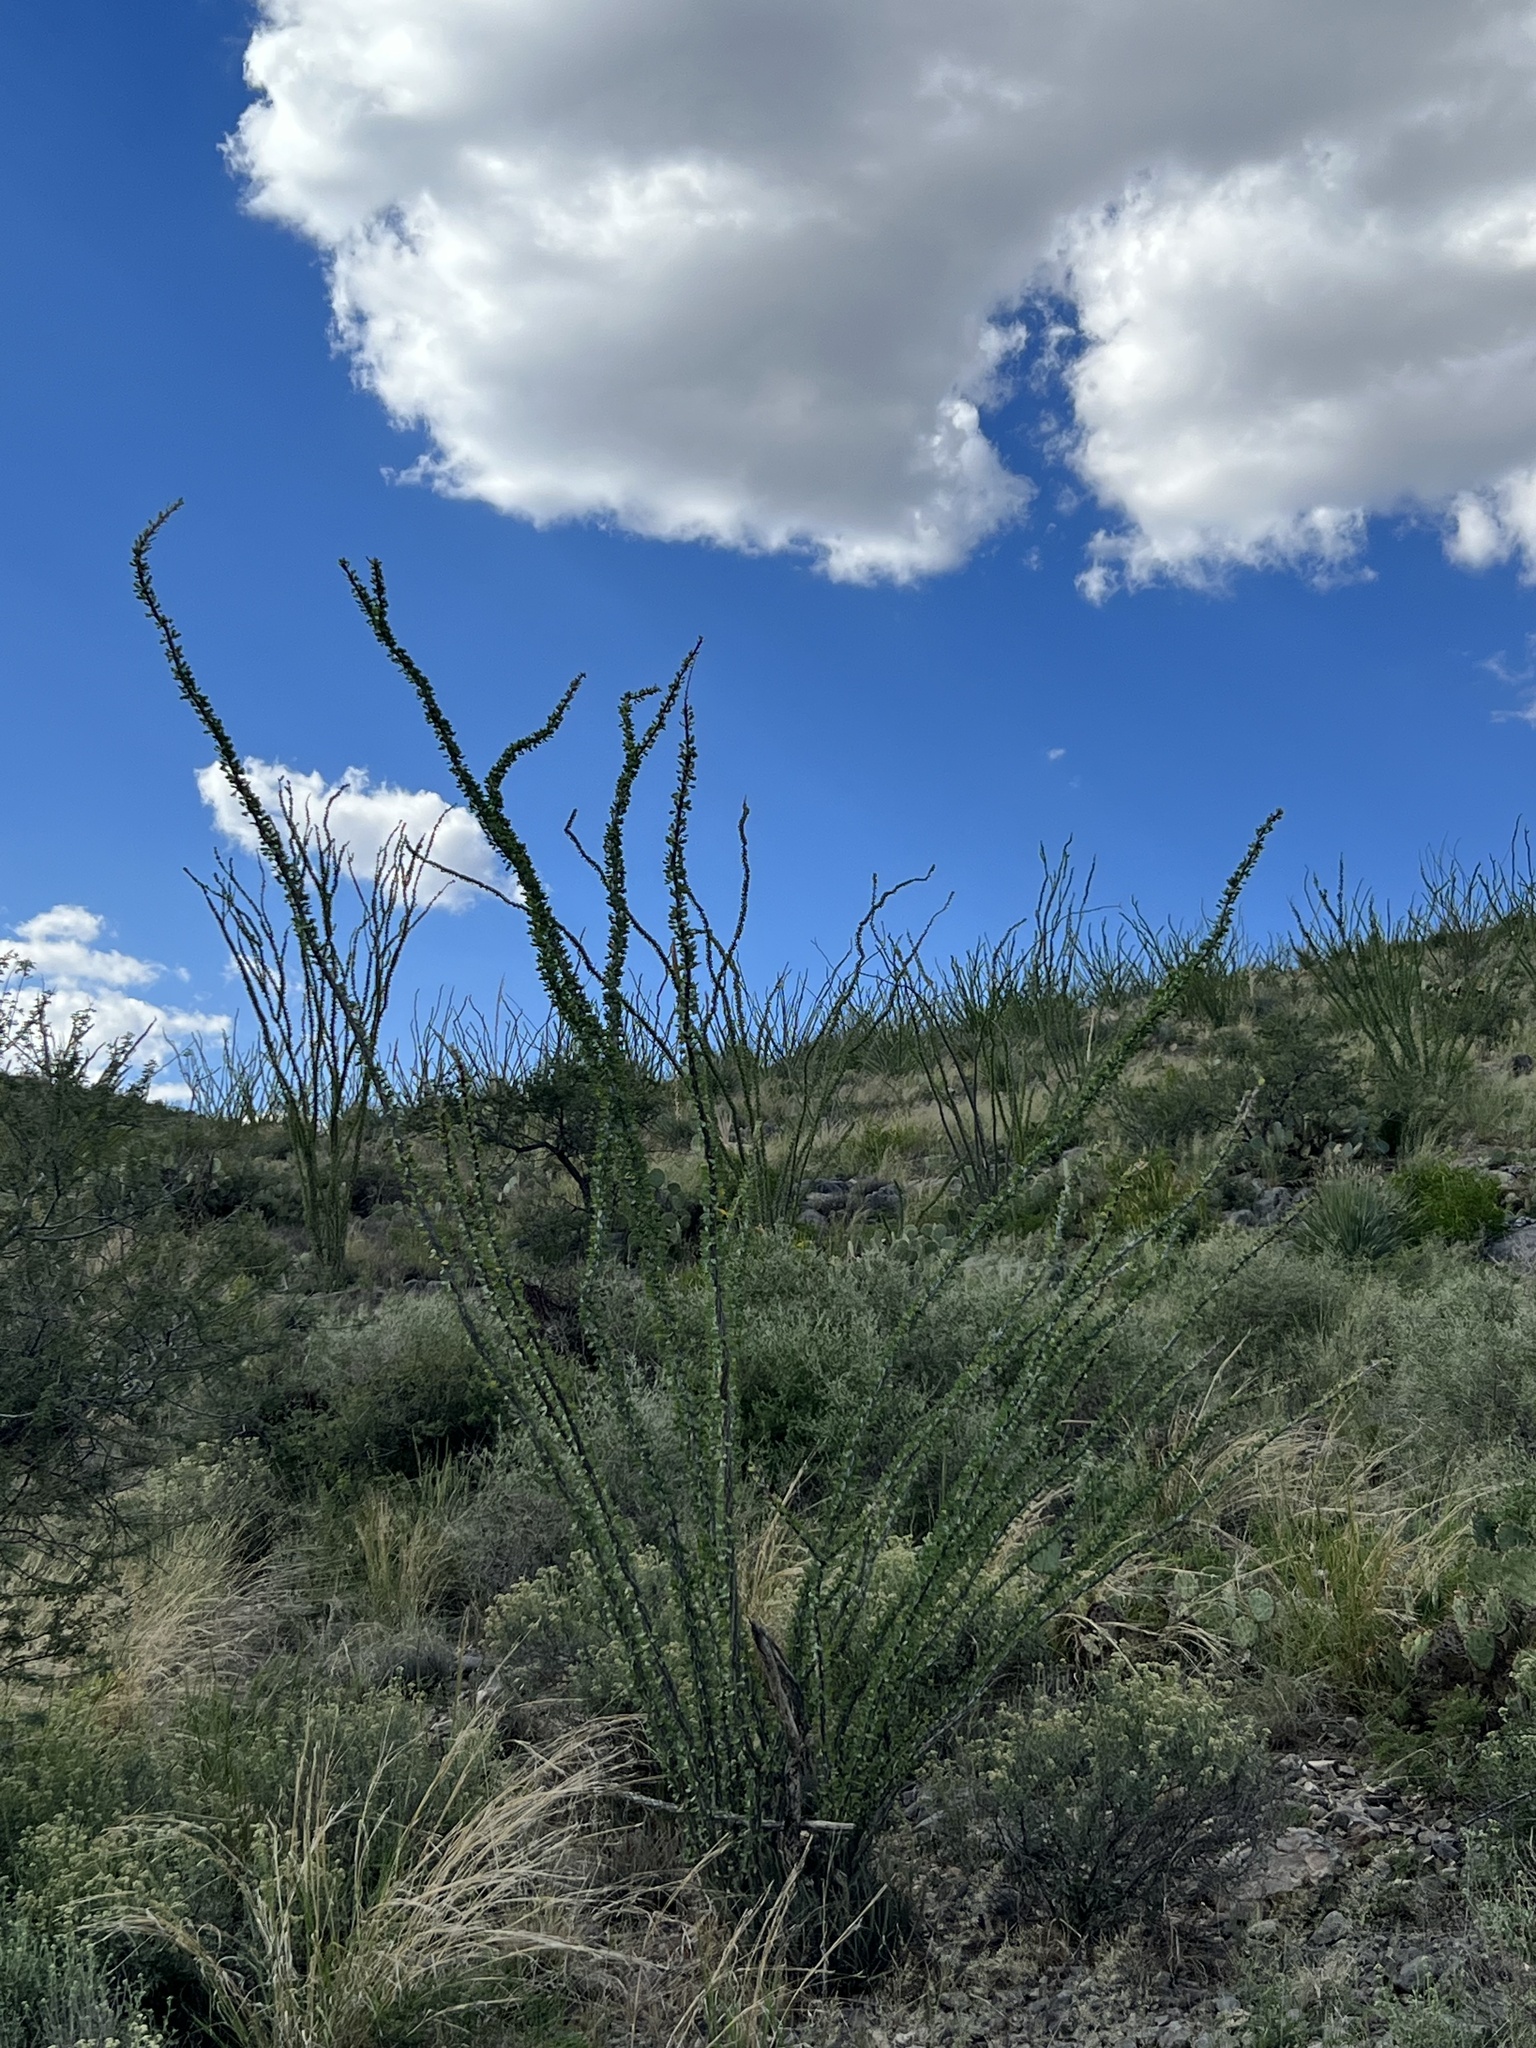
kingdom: Plantae
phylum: Tracheophyta
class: Magnoliopsida
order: Ericales
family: Fouquieriaceae
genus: Fouquieria
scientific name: Fouquieria splendens
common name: Vine-cactus
